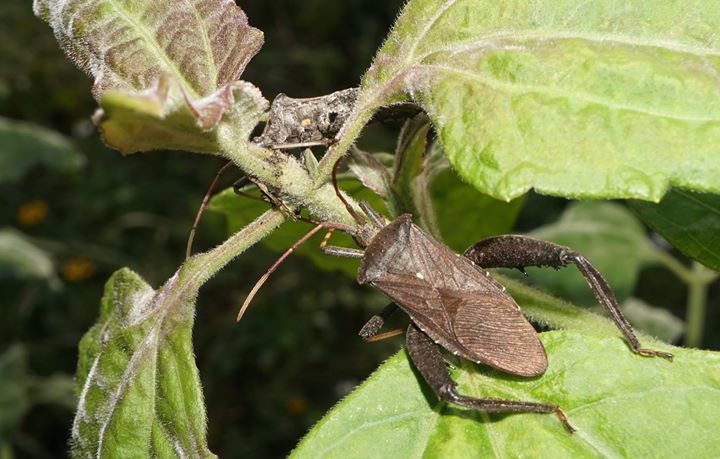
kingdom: Animalia
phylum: Arthropoda
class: Insecta
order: Hemiptera
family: Coreidae
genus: Acanthocephala
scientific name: Acanthocephala femorata
